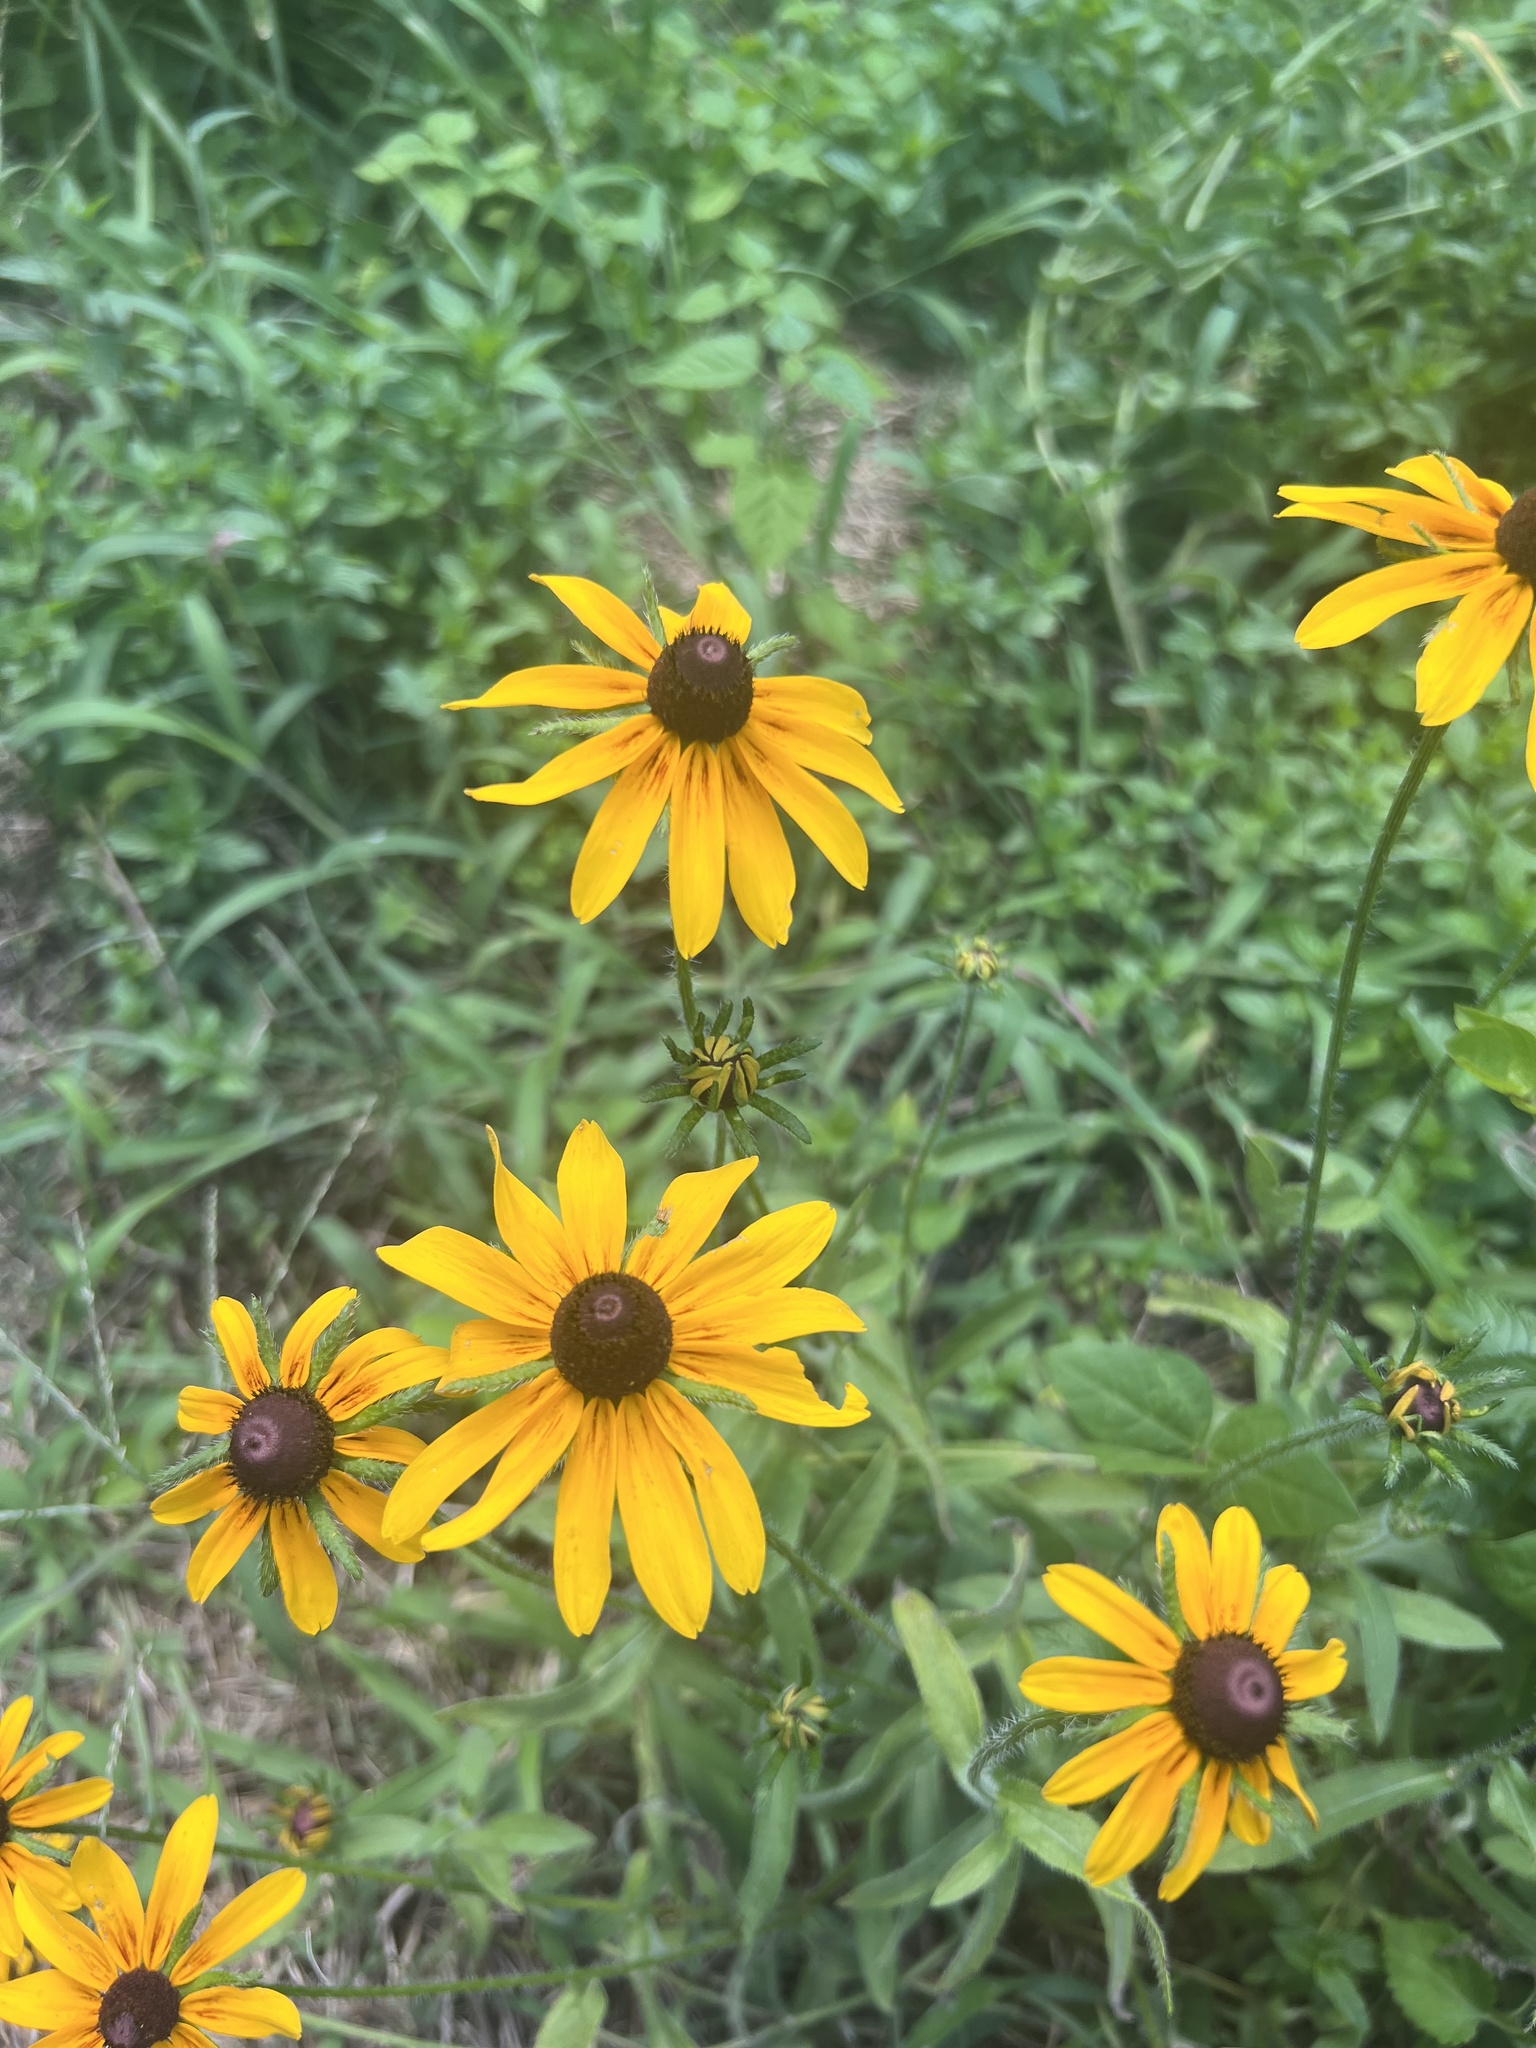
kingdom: Plantae
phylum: Tracheophyta
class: Magnoliopsida
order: Asterales
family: Asteraceae
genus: Rudbeckia
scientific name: Rudbeckia hirta
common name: Black-eyed-susan
